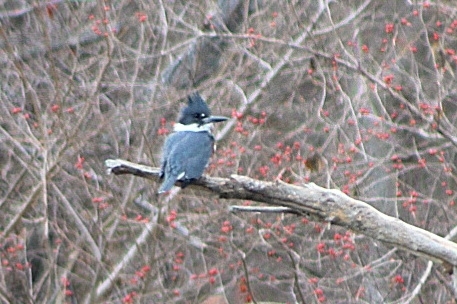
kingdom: Animalia
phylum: Chordata
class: Aves
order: Coraciiformes
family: Alcedinidae
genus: Megaceryle
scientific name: Megaceryle alcyon
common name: Belted kingfisher
